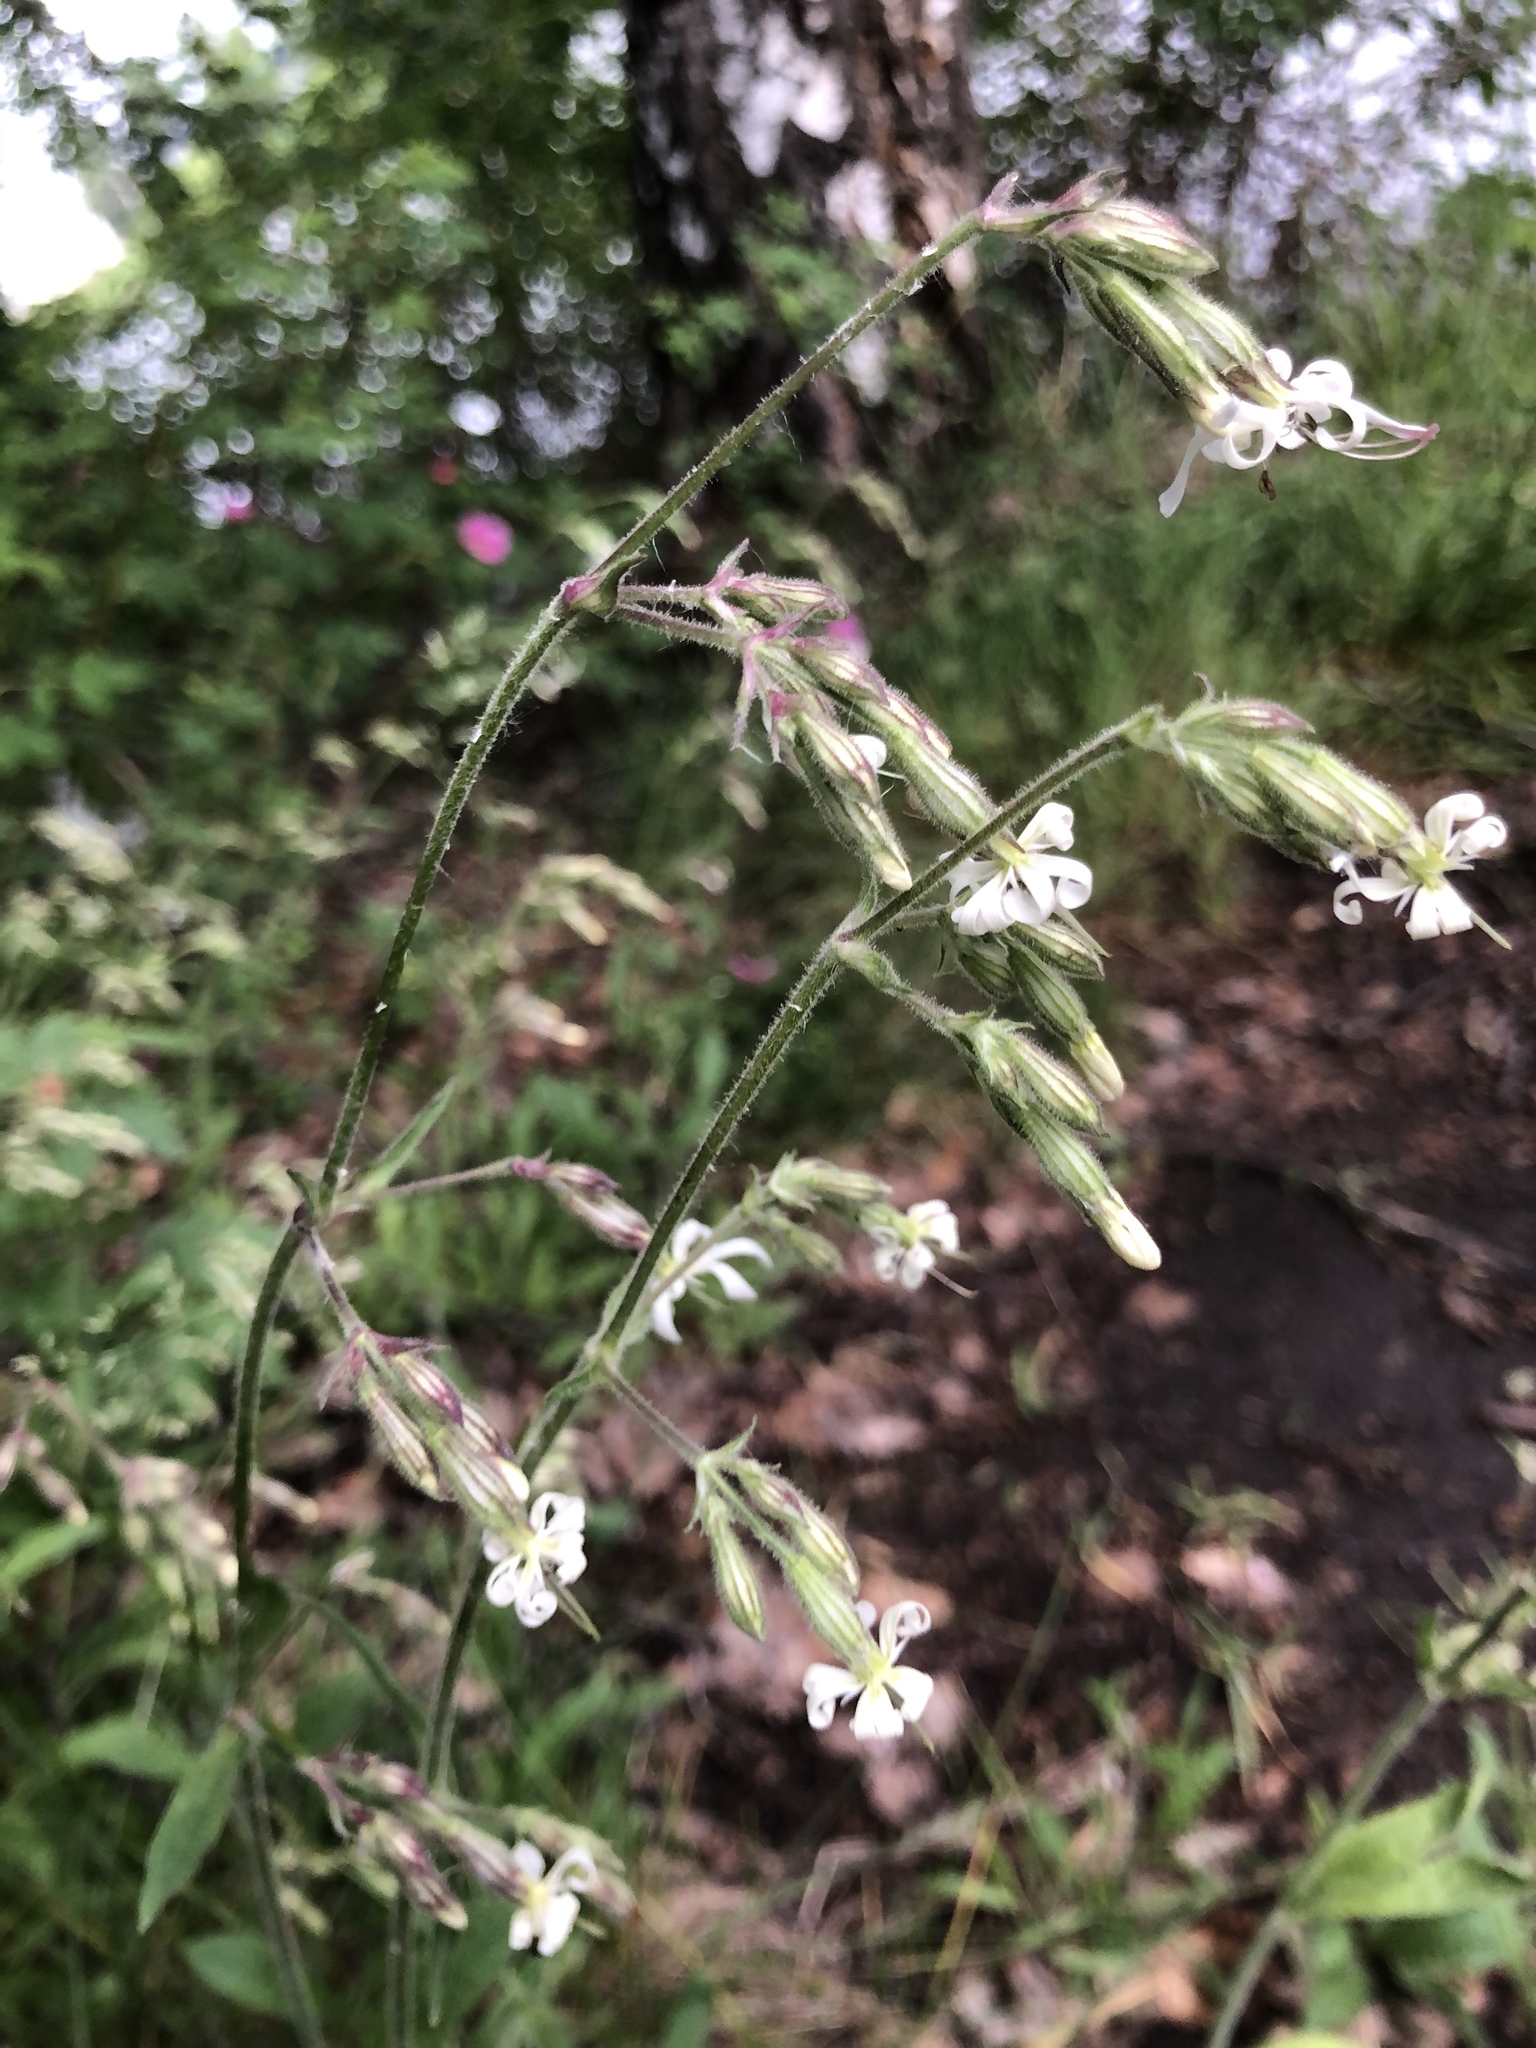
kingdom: Plantae
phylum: Tracheophyta
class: Magnoliopsida
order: Caryophyllales
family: Caryophyllaceae
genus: Silene
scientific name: Silene nutans
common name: Nottingham catchfly
